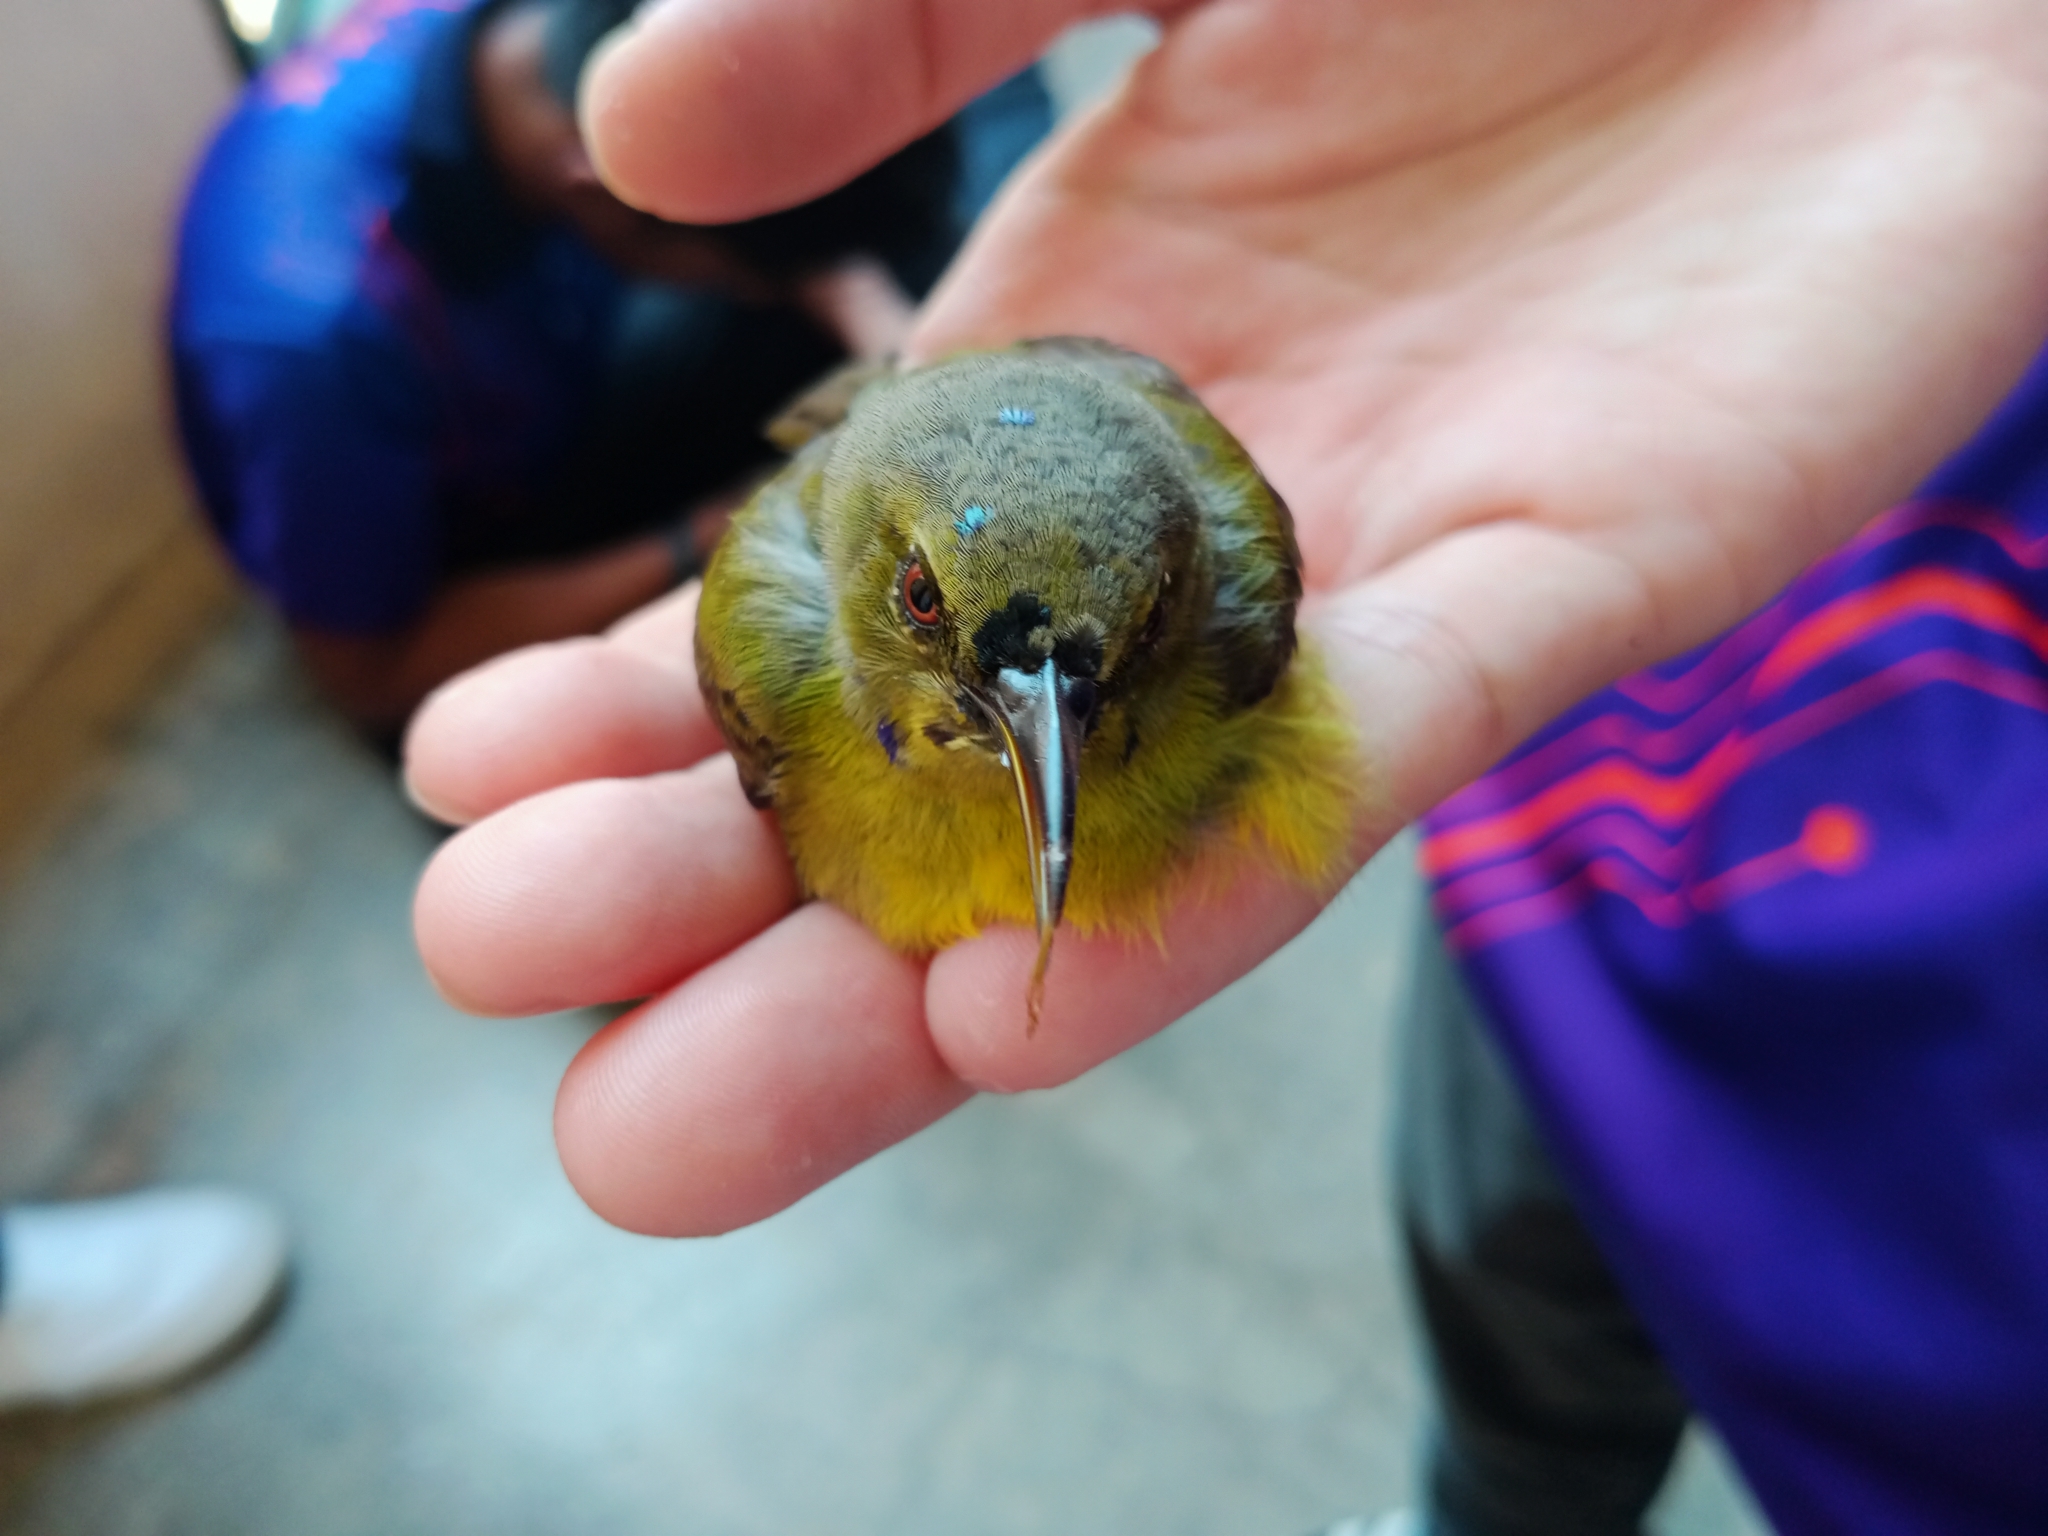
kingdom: Animalia
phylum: Chordata
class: Aves
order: Passeriformes
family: Nectariniidae
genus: Anthreptes
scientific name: Anthreptes malacensis
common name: Brown-throated sunbird
